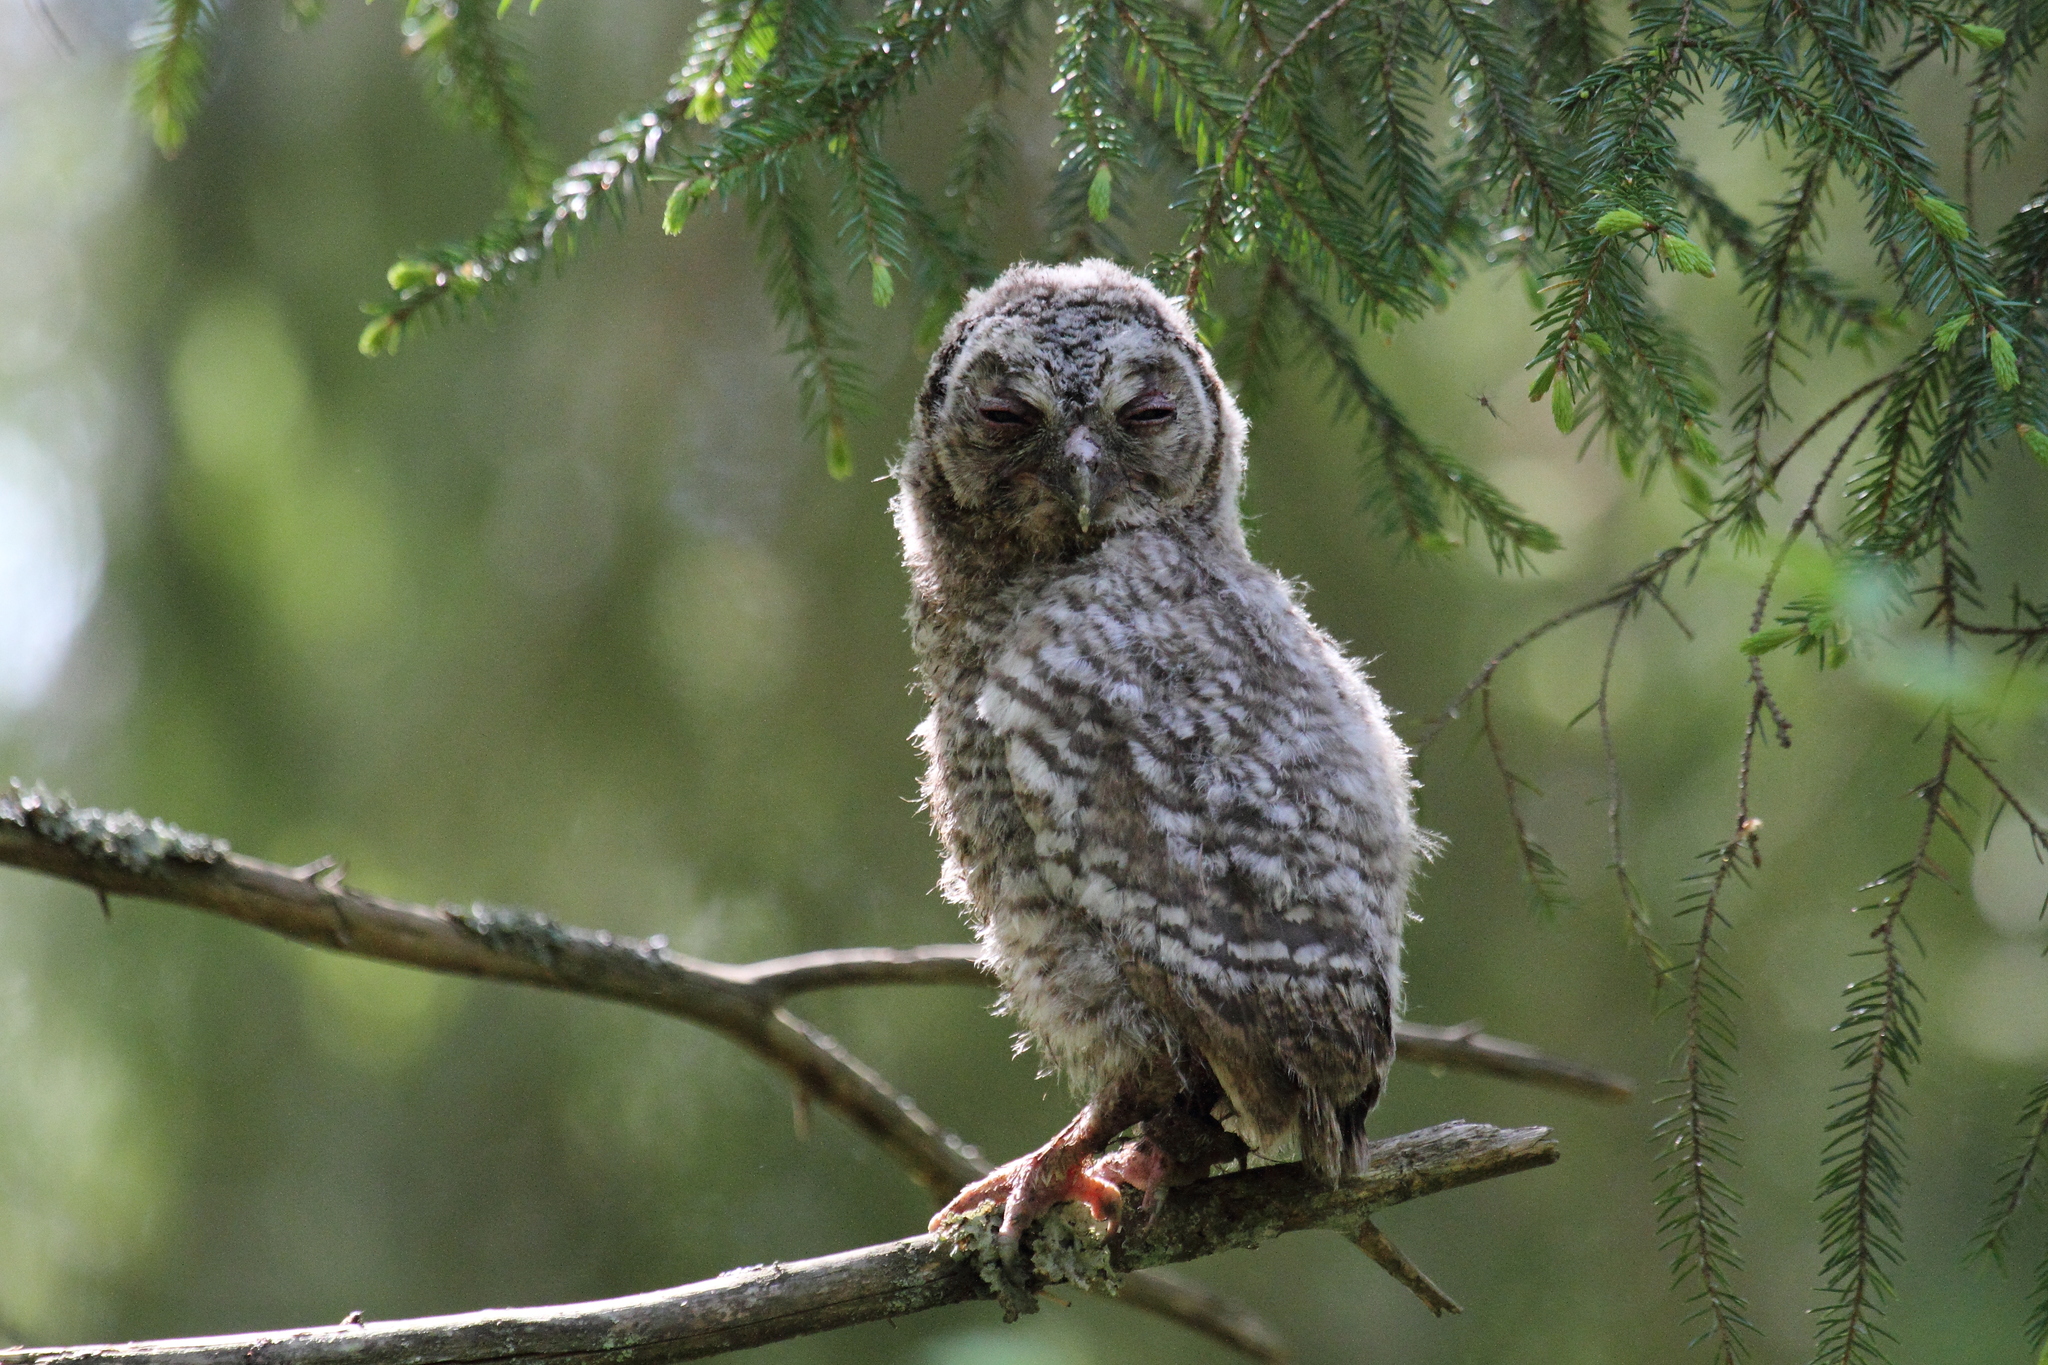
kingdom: Animalia
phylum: Chordata
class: Aves
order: Strigiformes
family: Strigidae
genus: Strix
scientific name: Strix aluco
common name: Tawny owl
